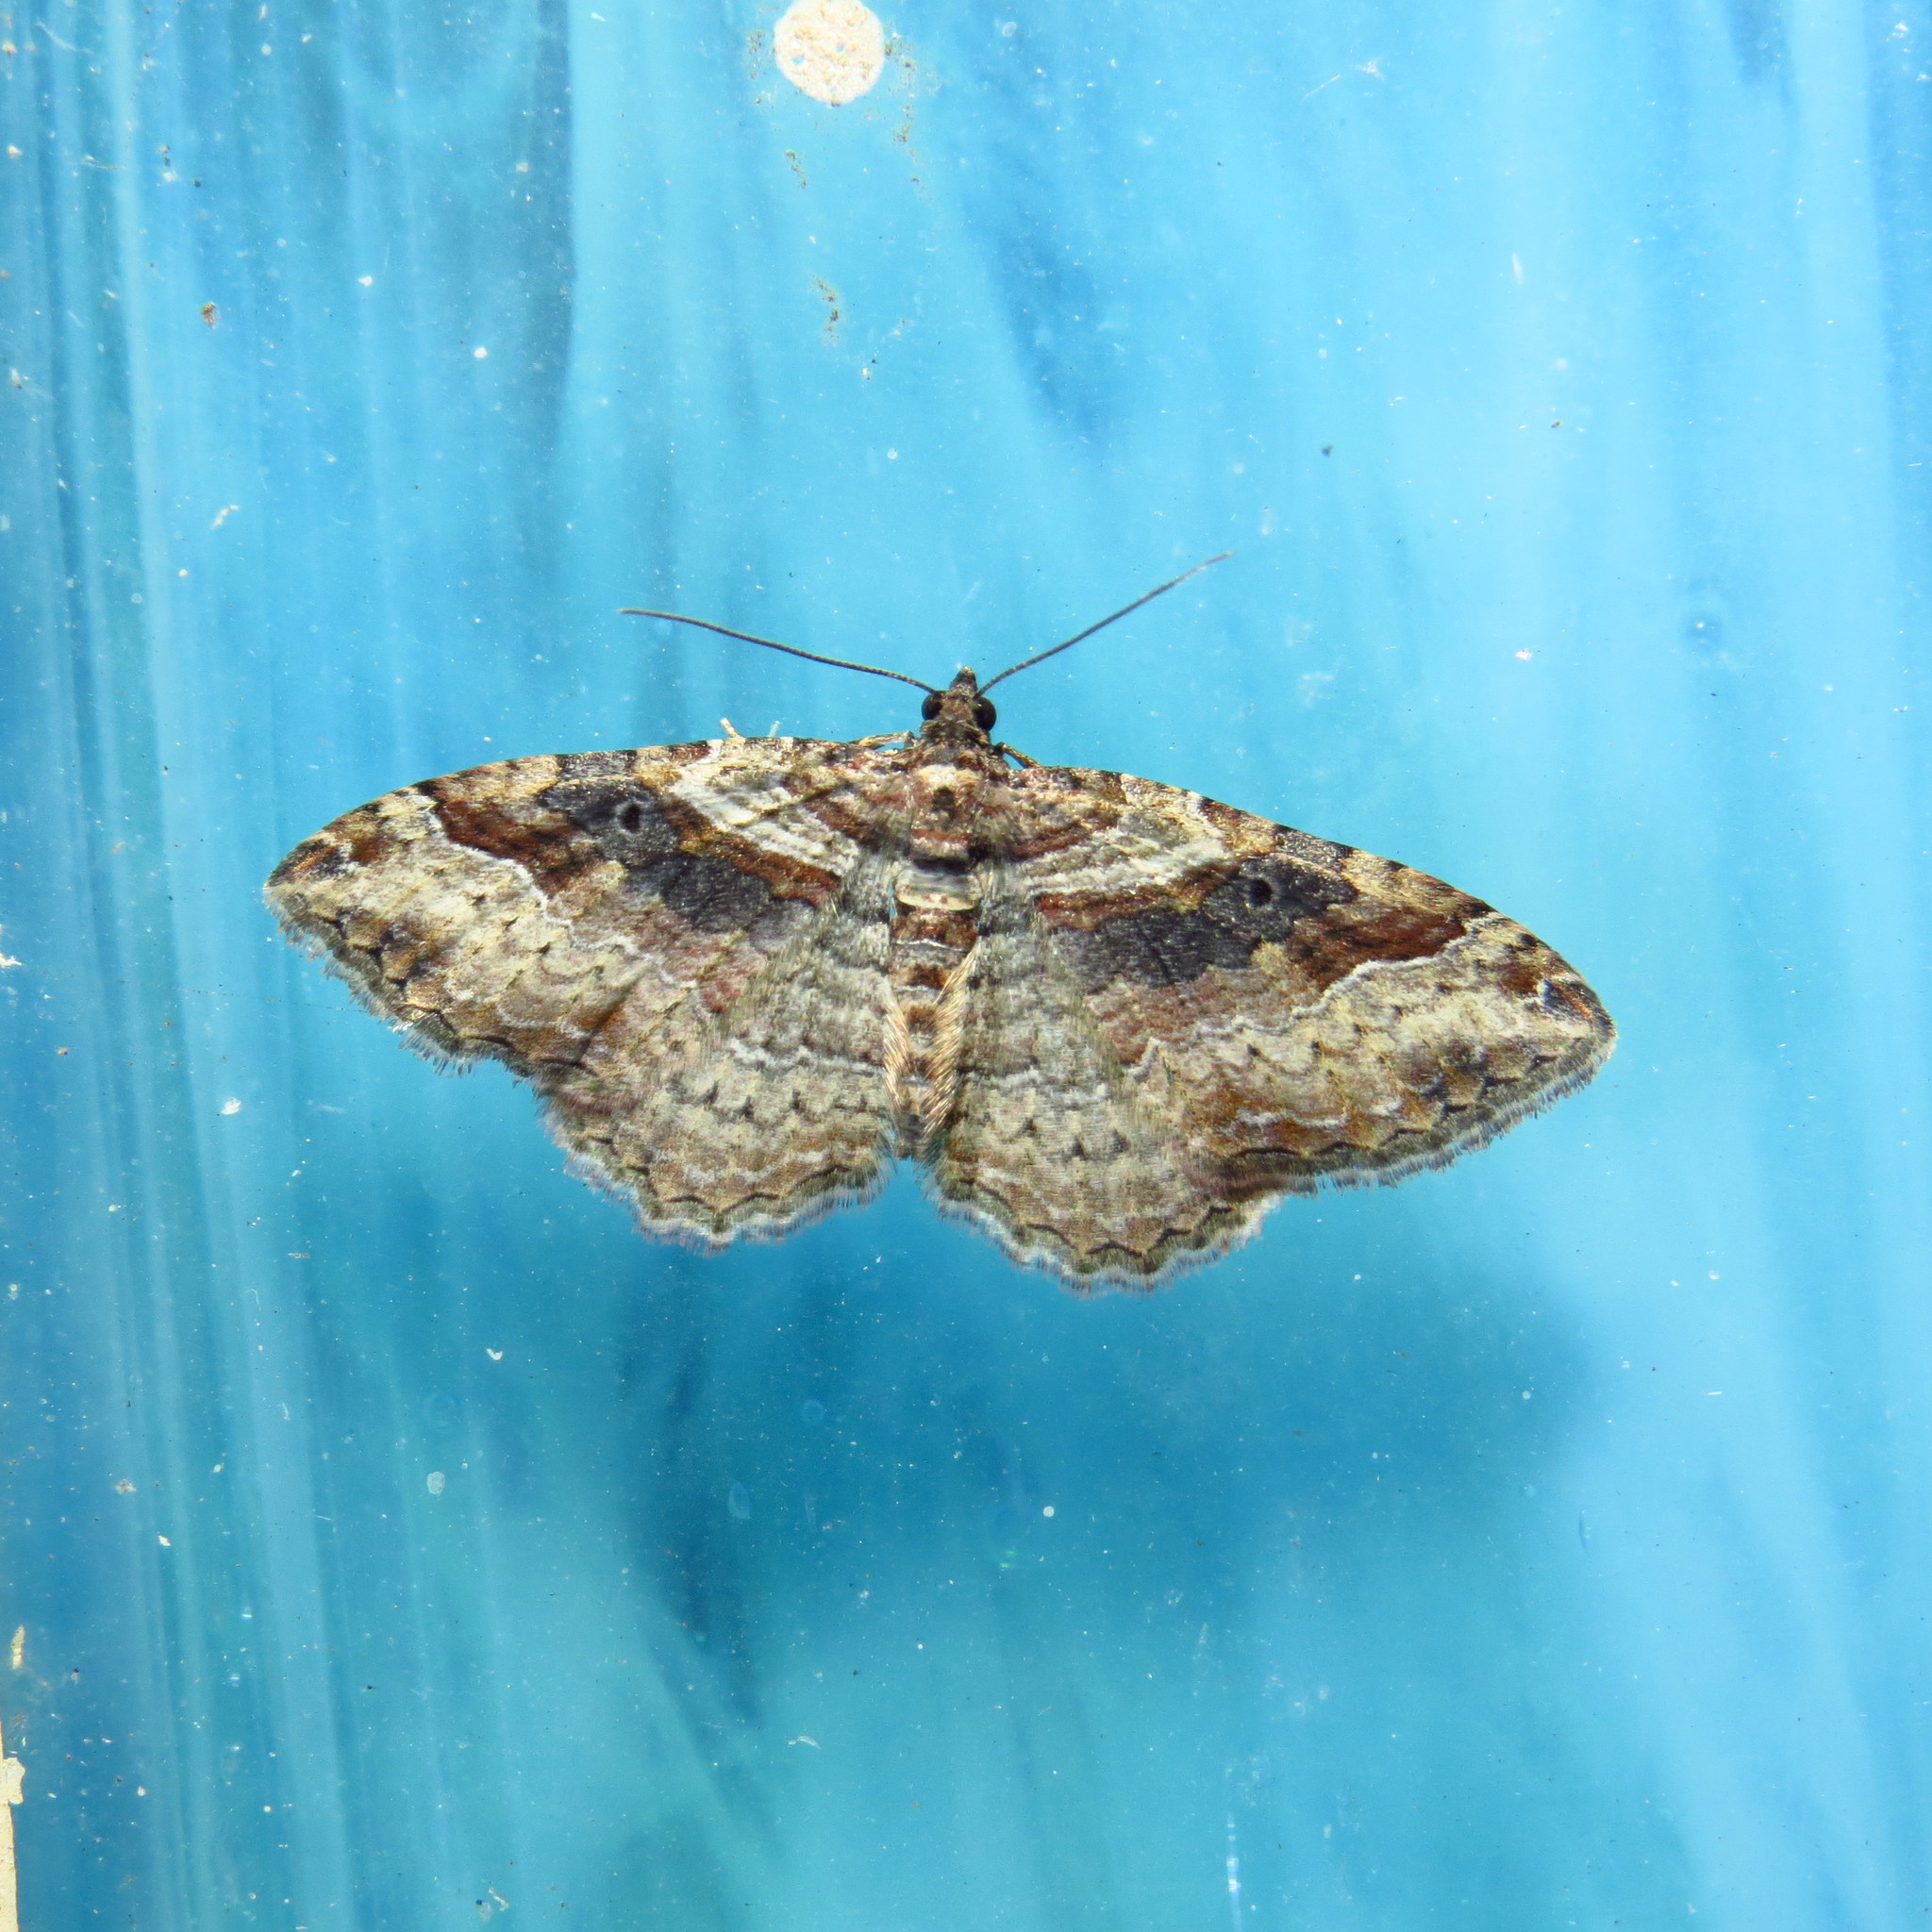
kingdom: Animalia
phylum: Arthropoda
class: Insecta
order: Lepidoptera
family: Geometridae
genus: Costaconvexa
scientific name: Costaconvexa centrostrigaria
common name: Bent-line carpet
